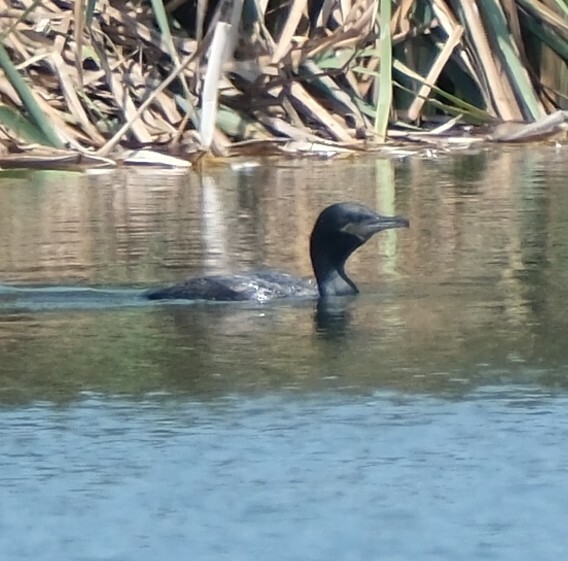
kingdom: Animalia
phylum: Chordata
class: Aves
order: Suliformes
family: Phalacrocoracidae
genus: Phalacrocorax
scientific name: Phalacrocorax brasilianus
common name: Neotropic cormorant
